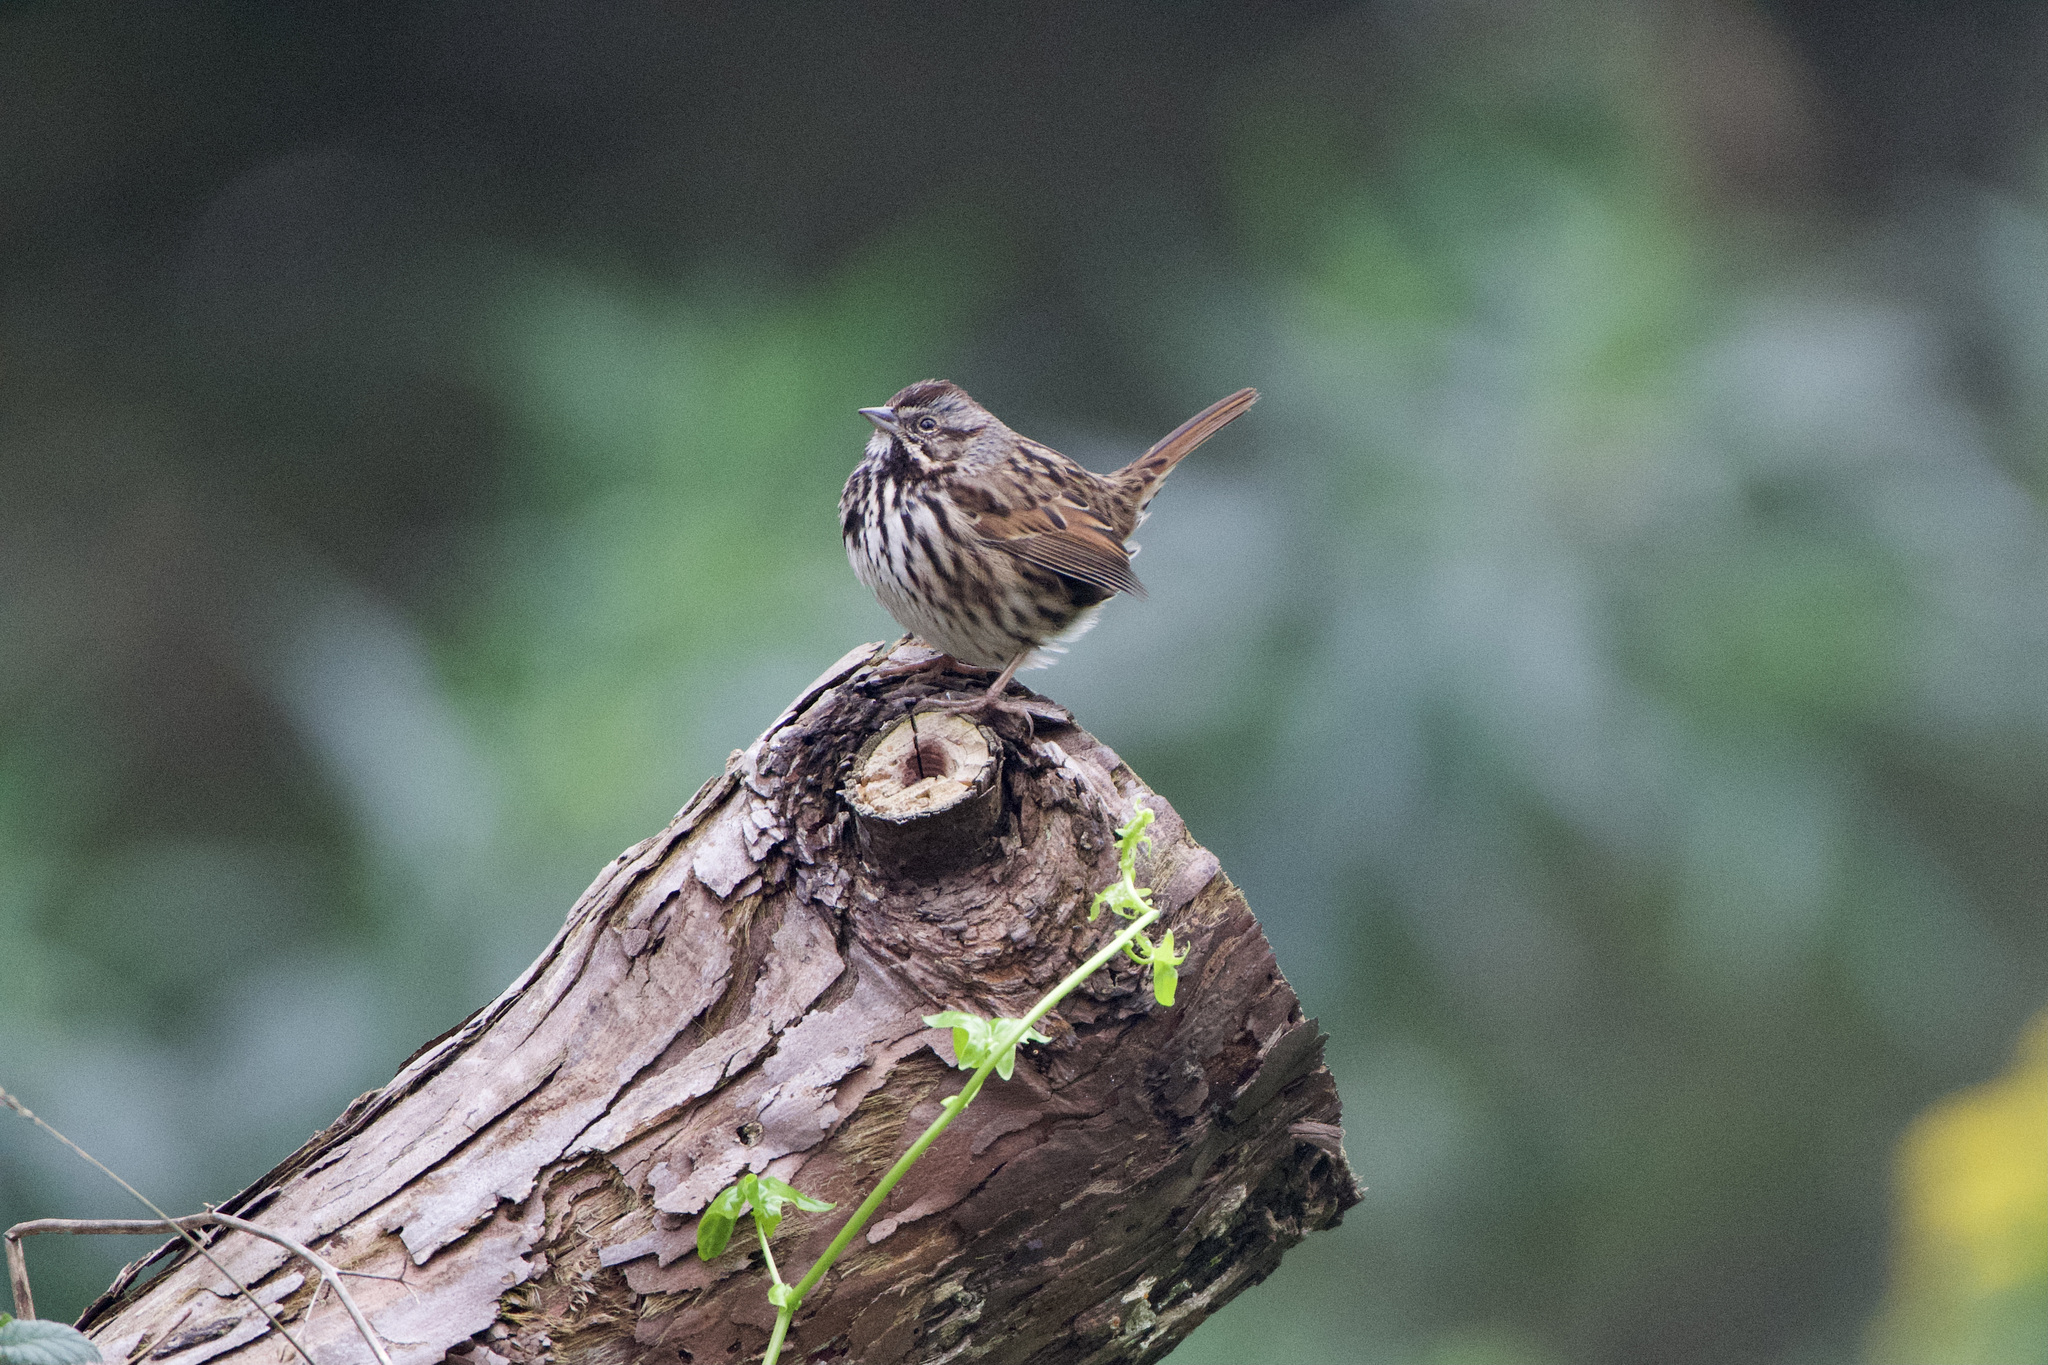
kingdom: Animalia
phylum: Chordata
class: Aves
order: Passeriformes
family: Passerellidae
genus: Melospiza
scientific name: Melospiza melodia
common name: Song sparrow
